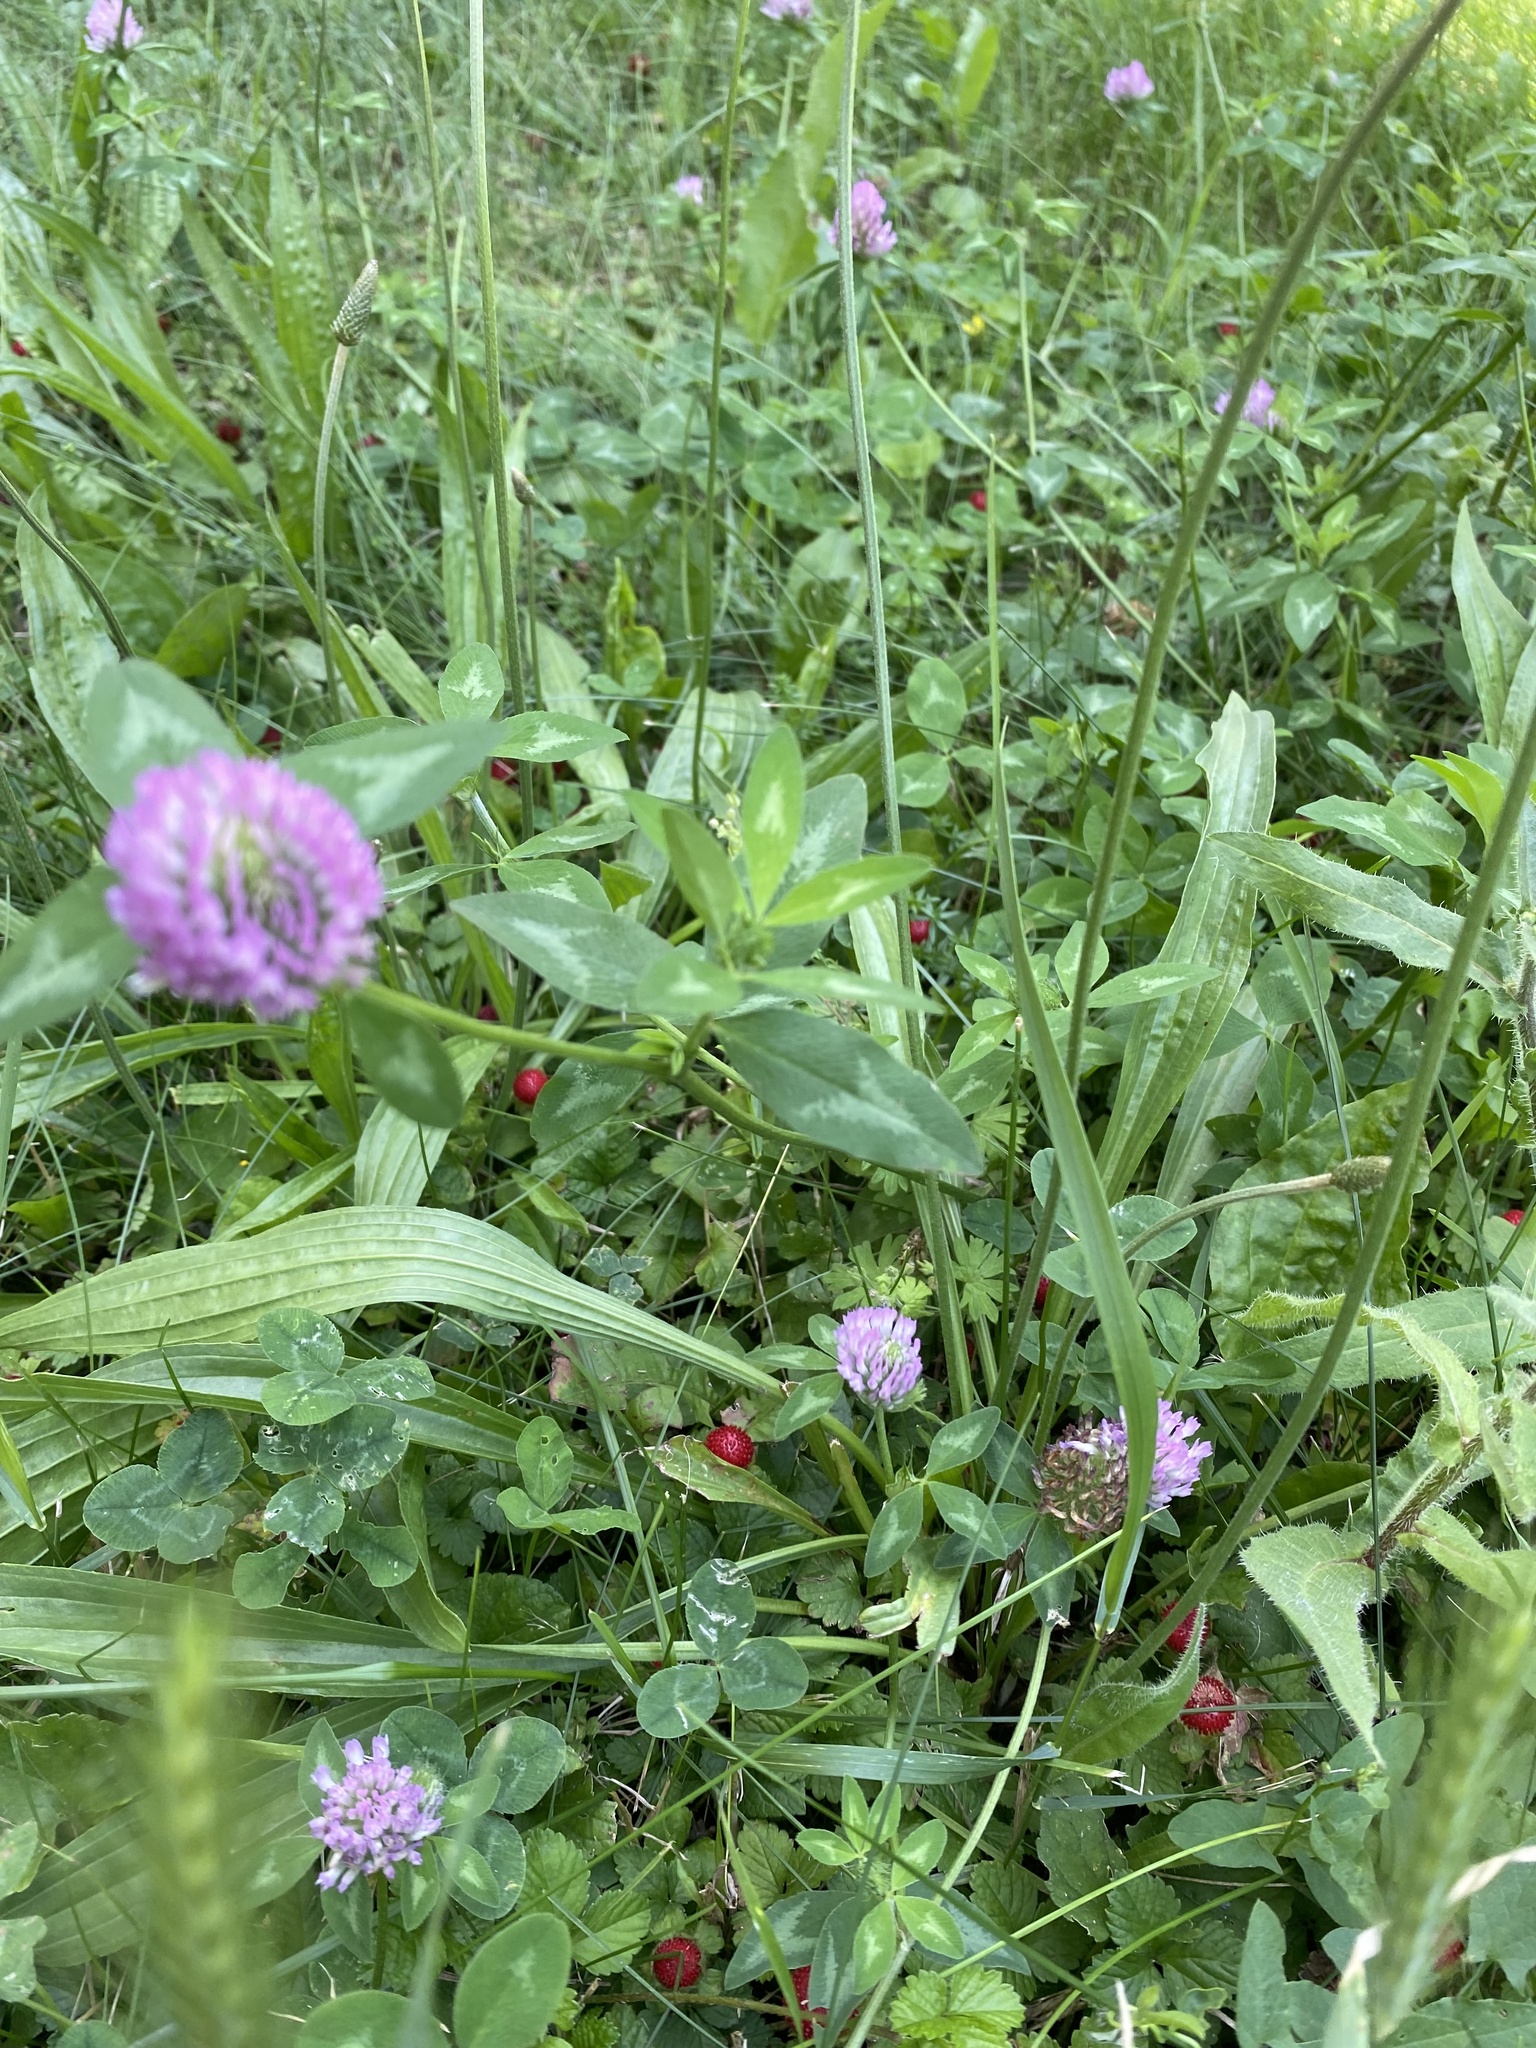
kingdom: Plantae
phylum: Tracheophyta
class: Magnoliopsida
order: Fabales
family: Fabaceae
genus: Trifolium
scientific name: Trifolium pratense
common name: Red clover
